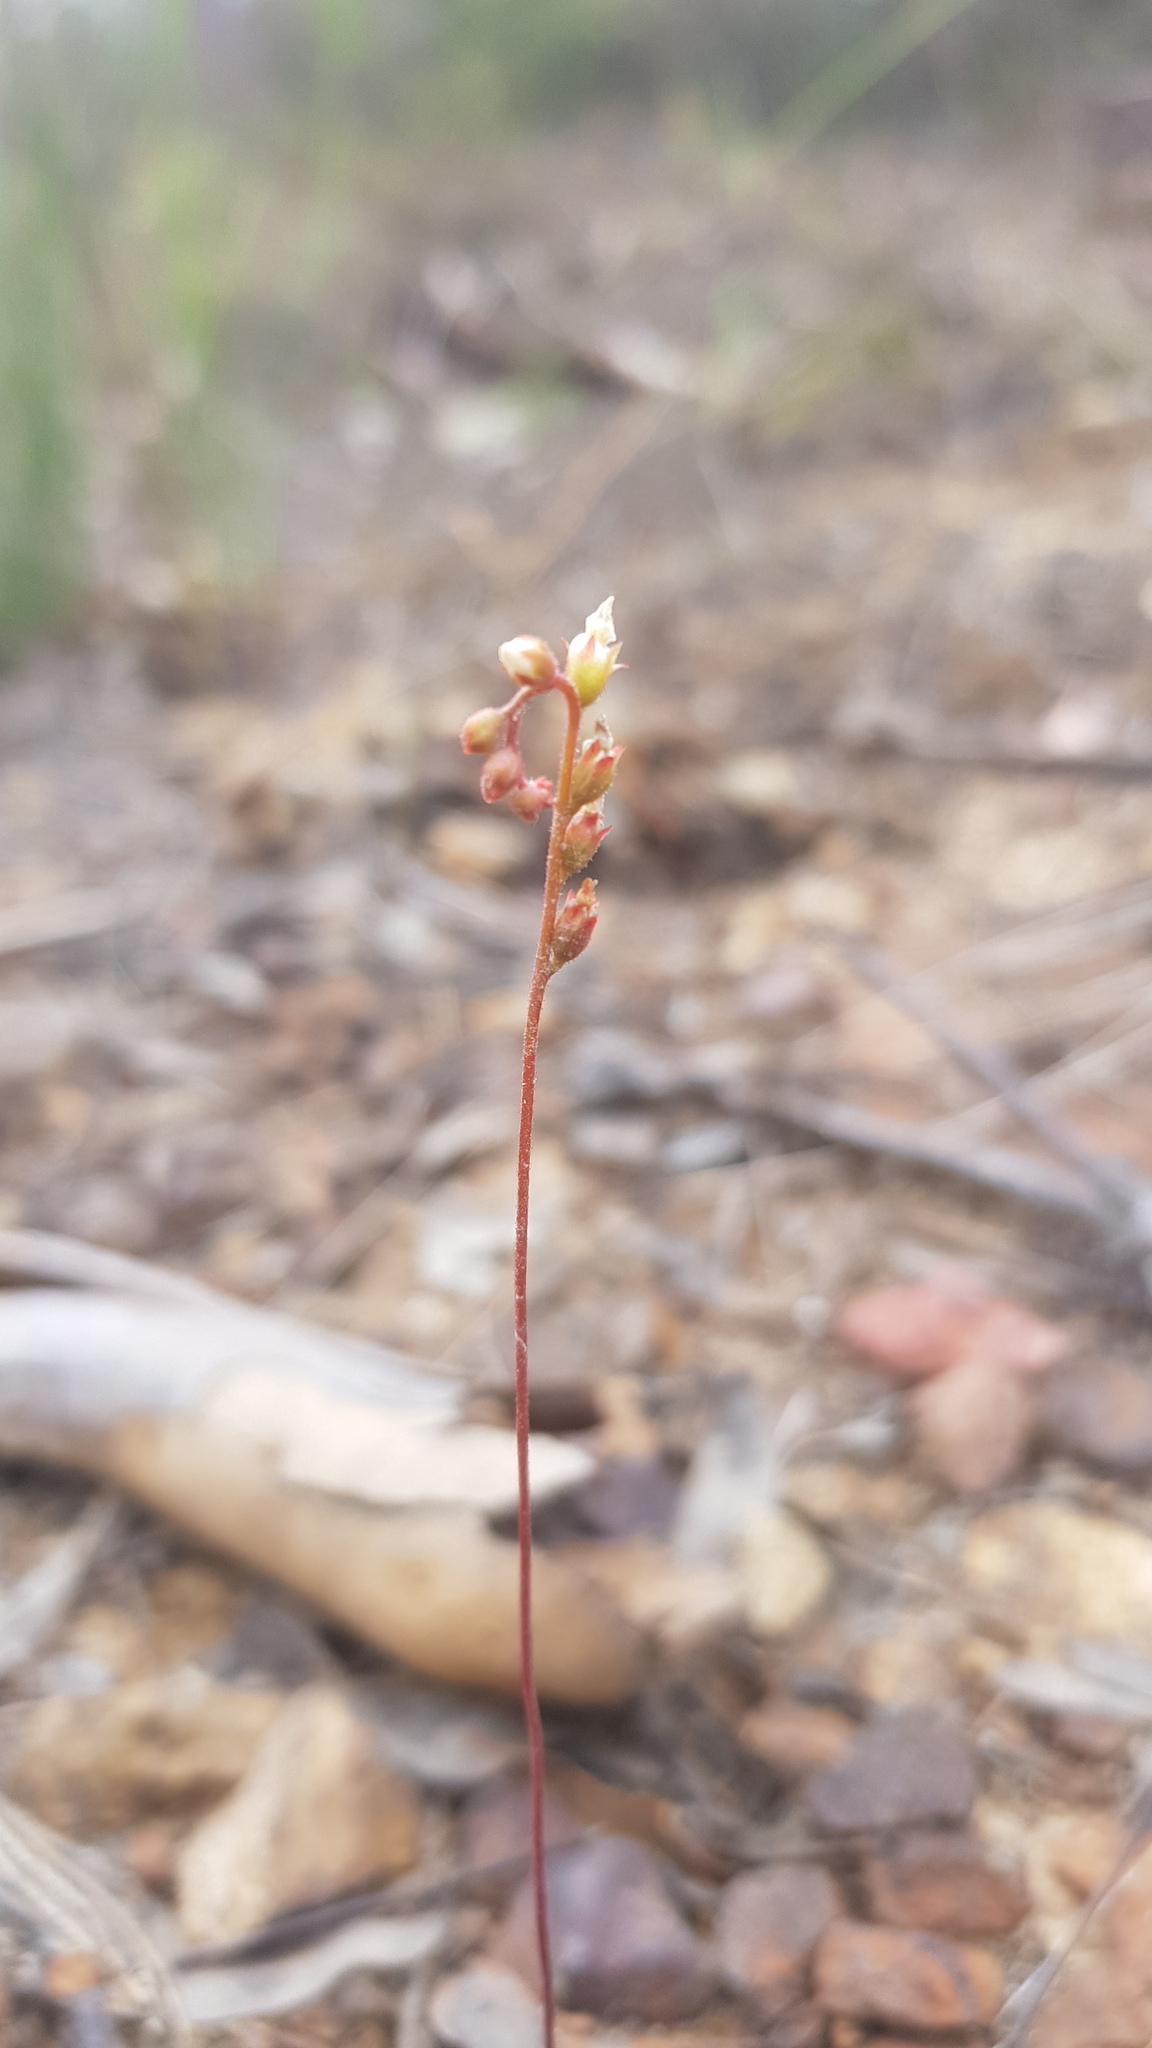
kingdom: Plantae
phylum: Tracheophyta
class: Magnoliopsida
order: Caryophyllales
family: Droseraceae
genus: Drosera
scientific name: Drosera spatulata
